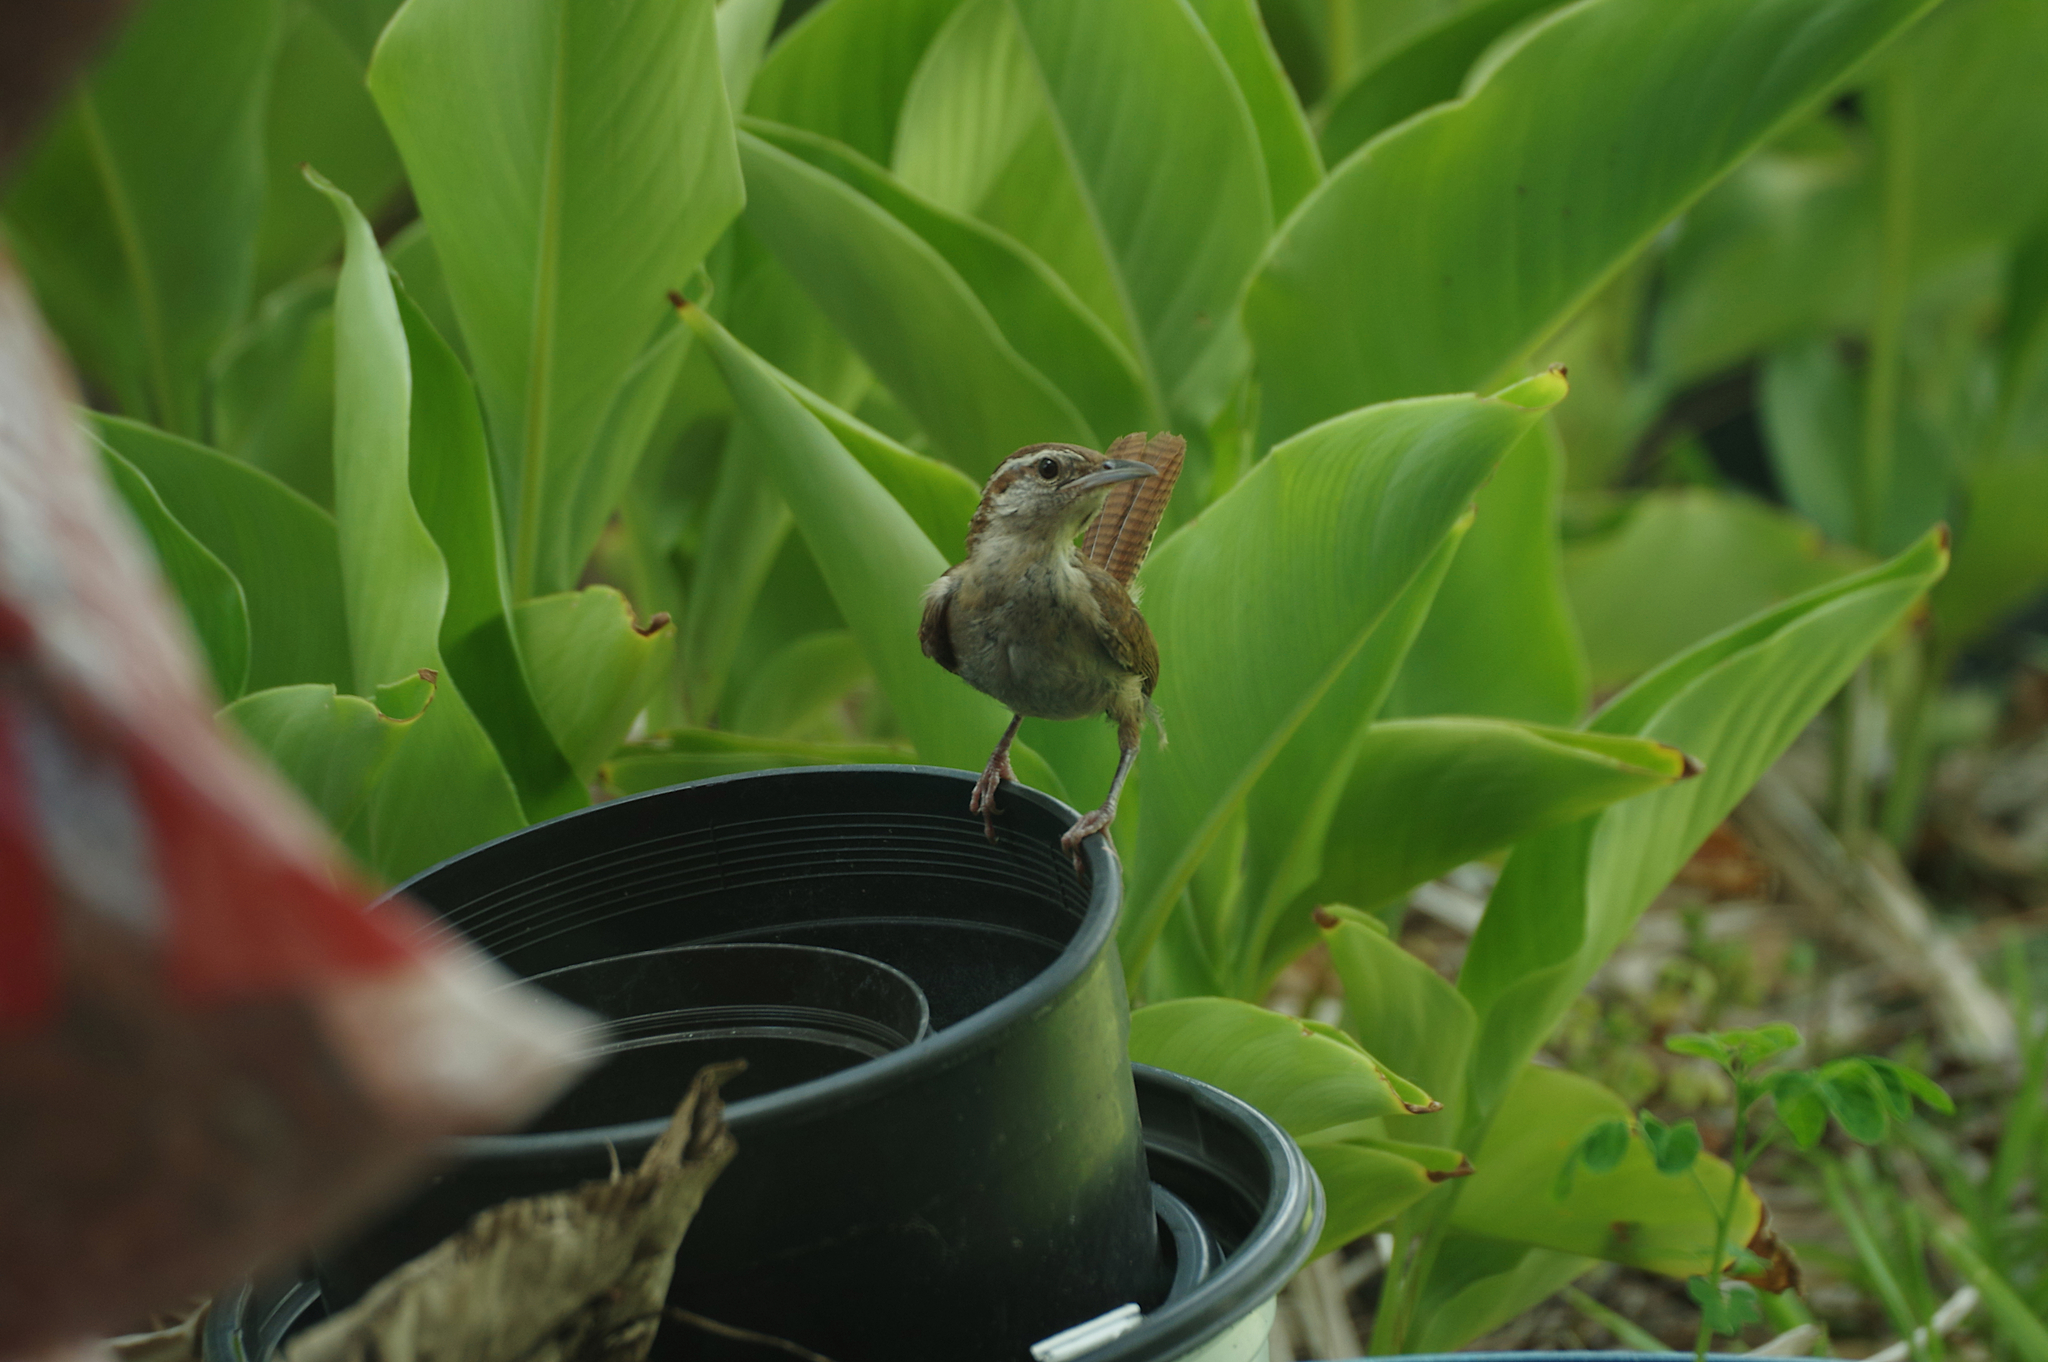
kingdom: Animalia
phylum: Chordata
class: Aves
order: Passeriformes
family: Troglodytidae
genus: Thryothorus
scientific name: Thryothorus ludovicianus
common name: Carolina wren
